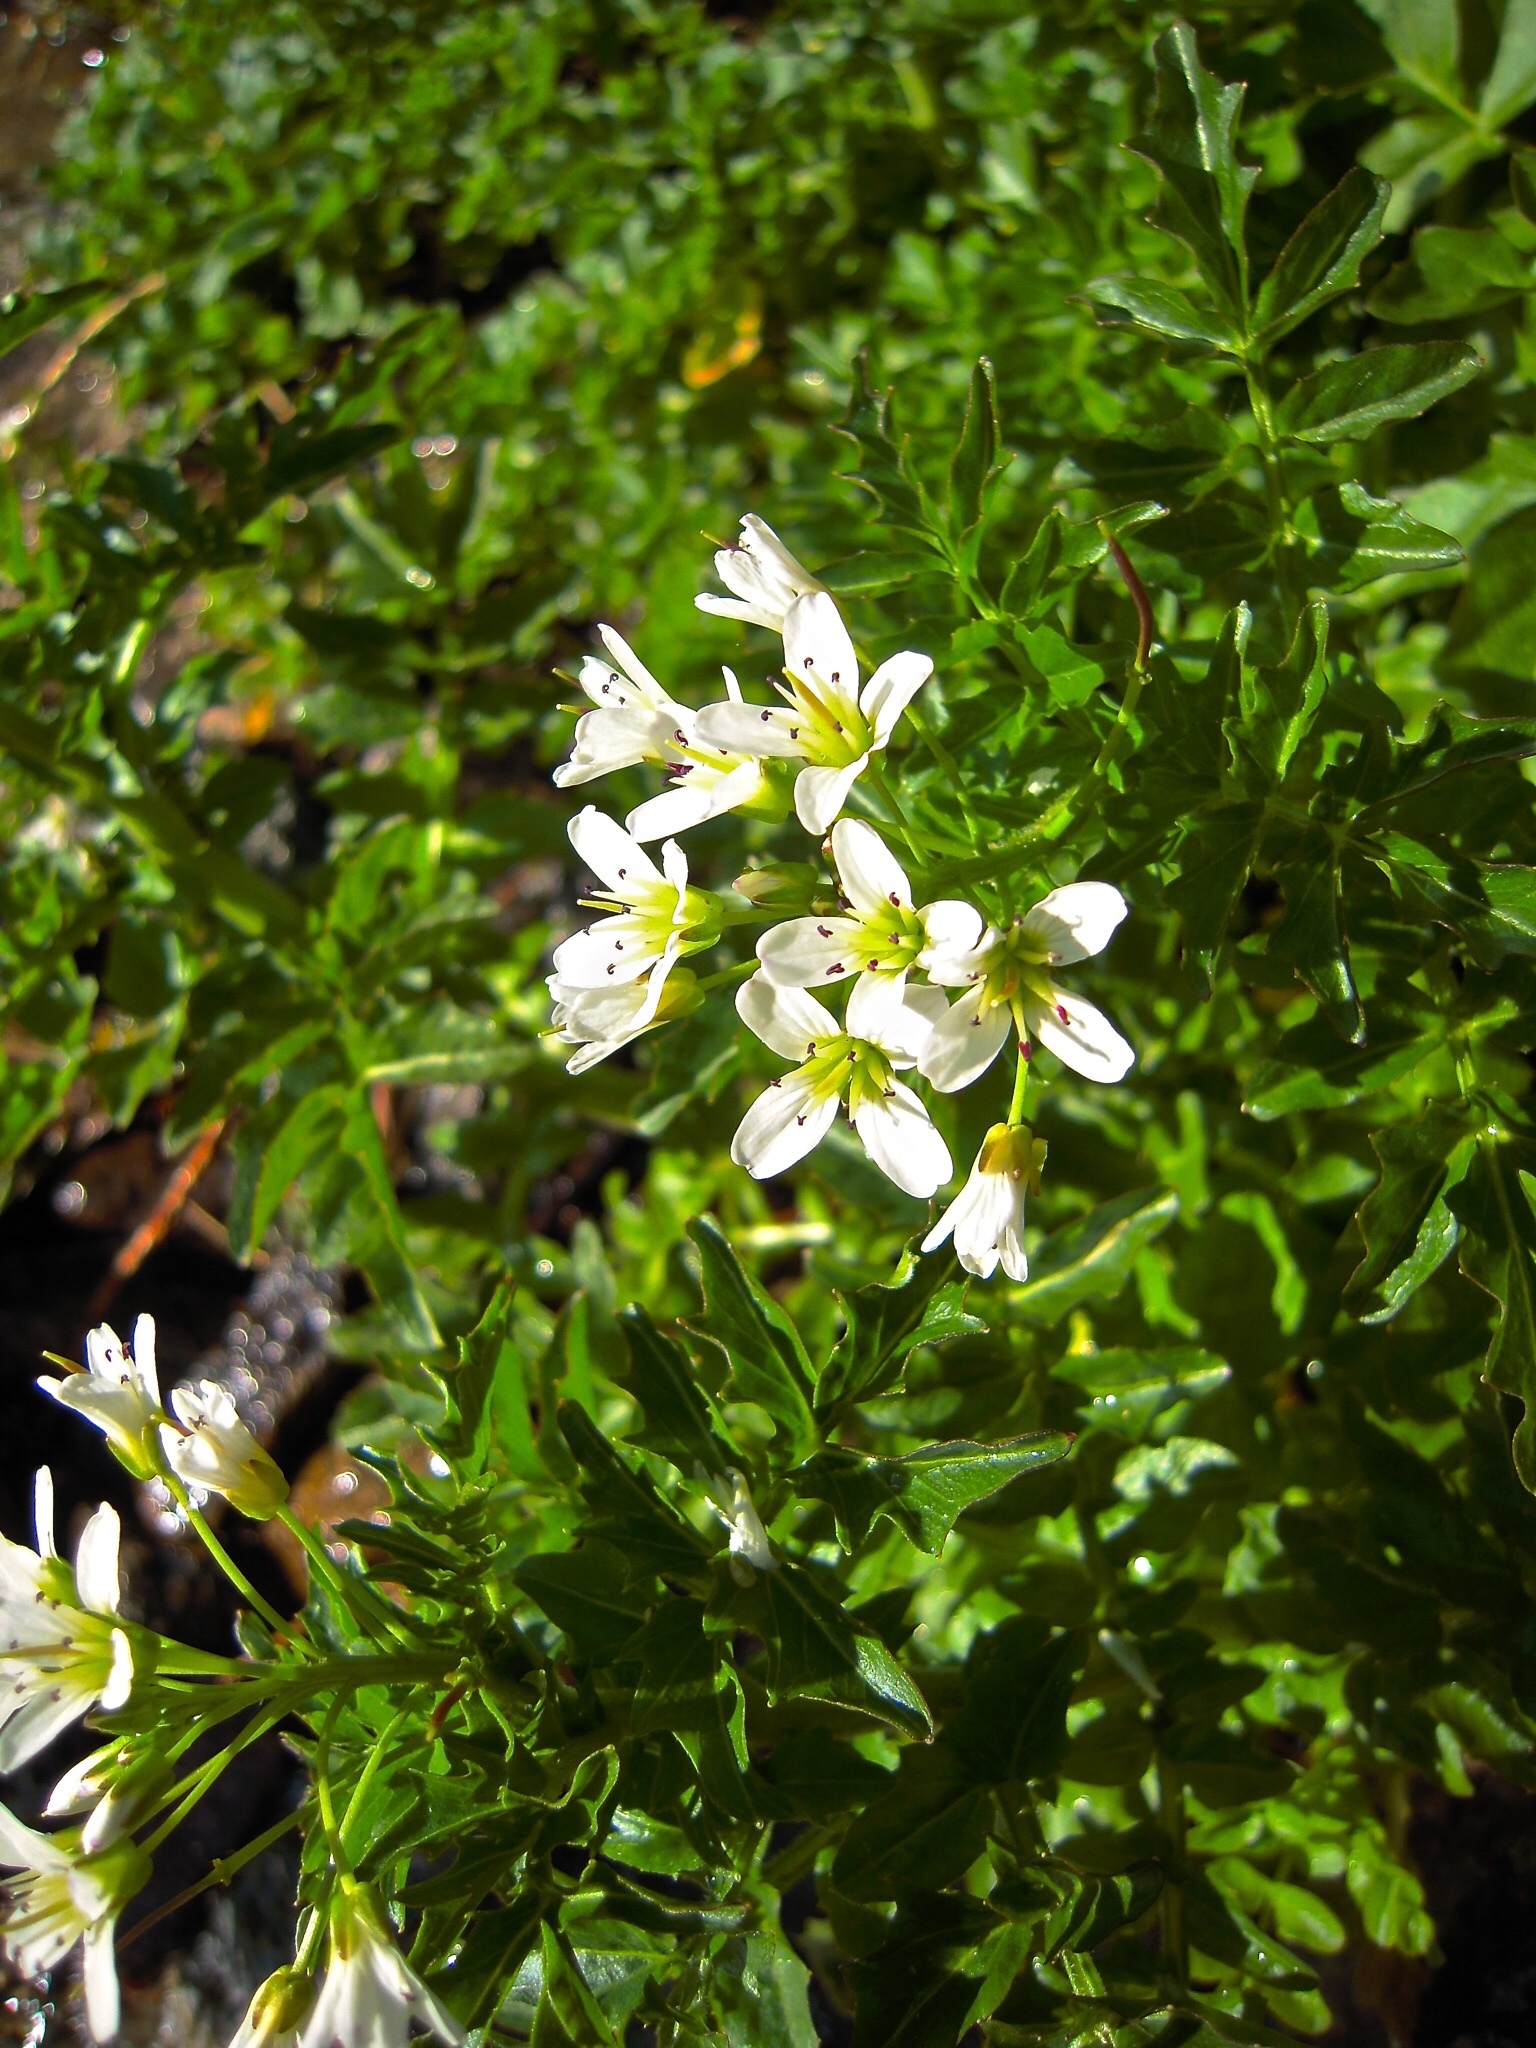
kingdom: Plantae
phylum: Tracheophyta
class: Magnoliopsida
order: Brassicales
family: Brassicaceae
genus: Cardamine
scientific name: Cardamine amara
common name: Large bitter-cress
